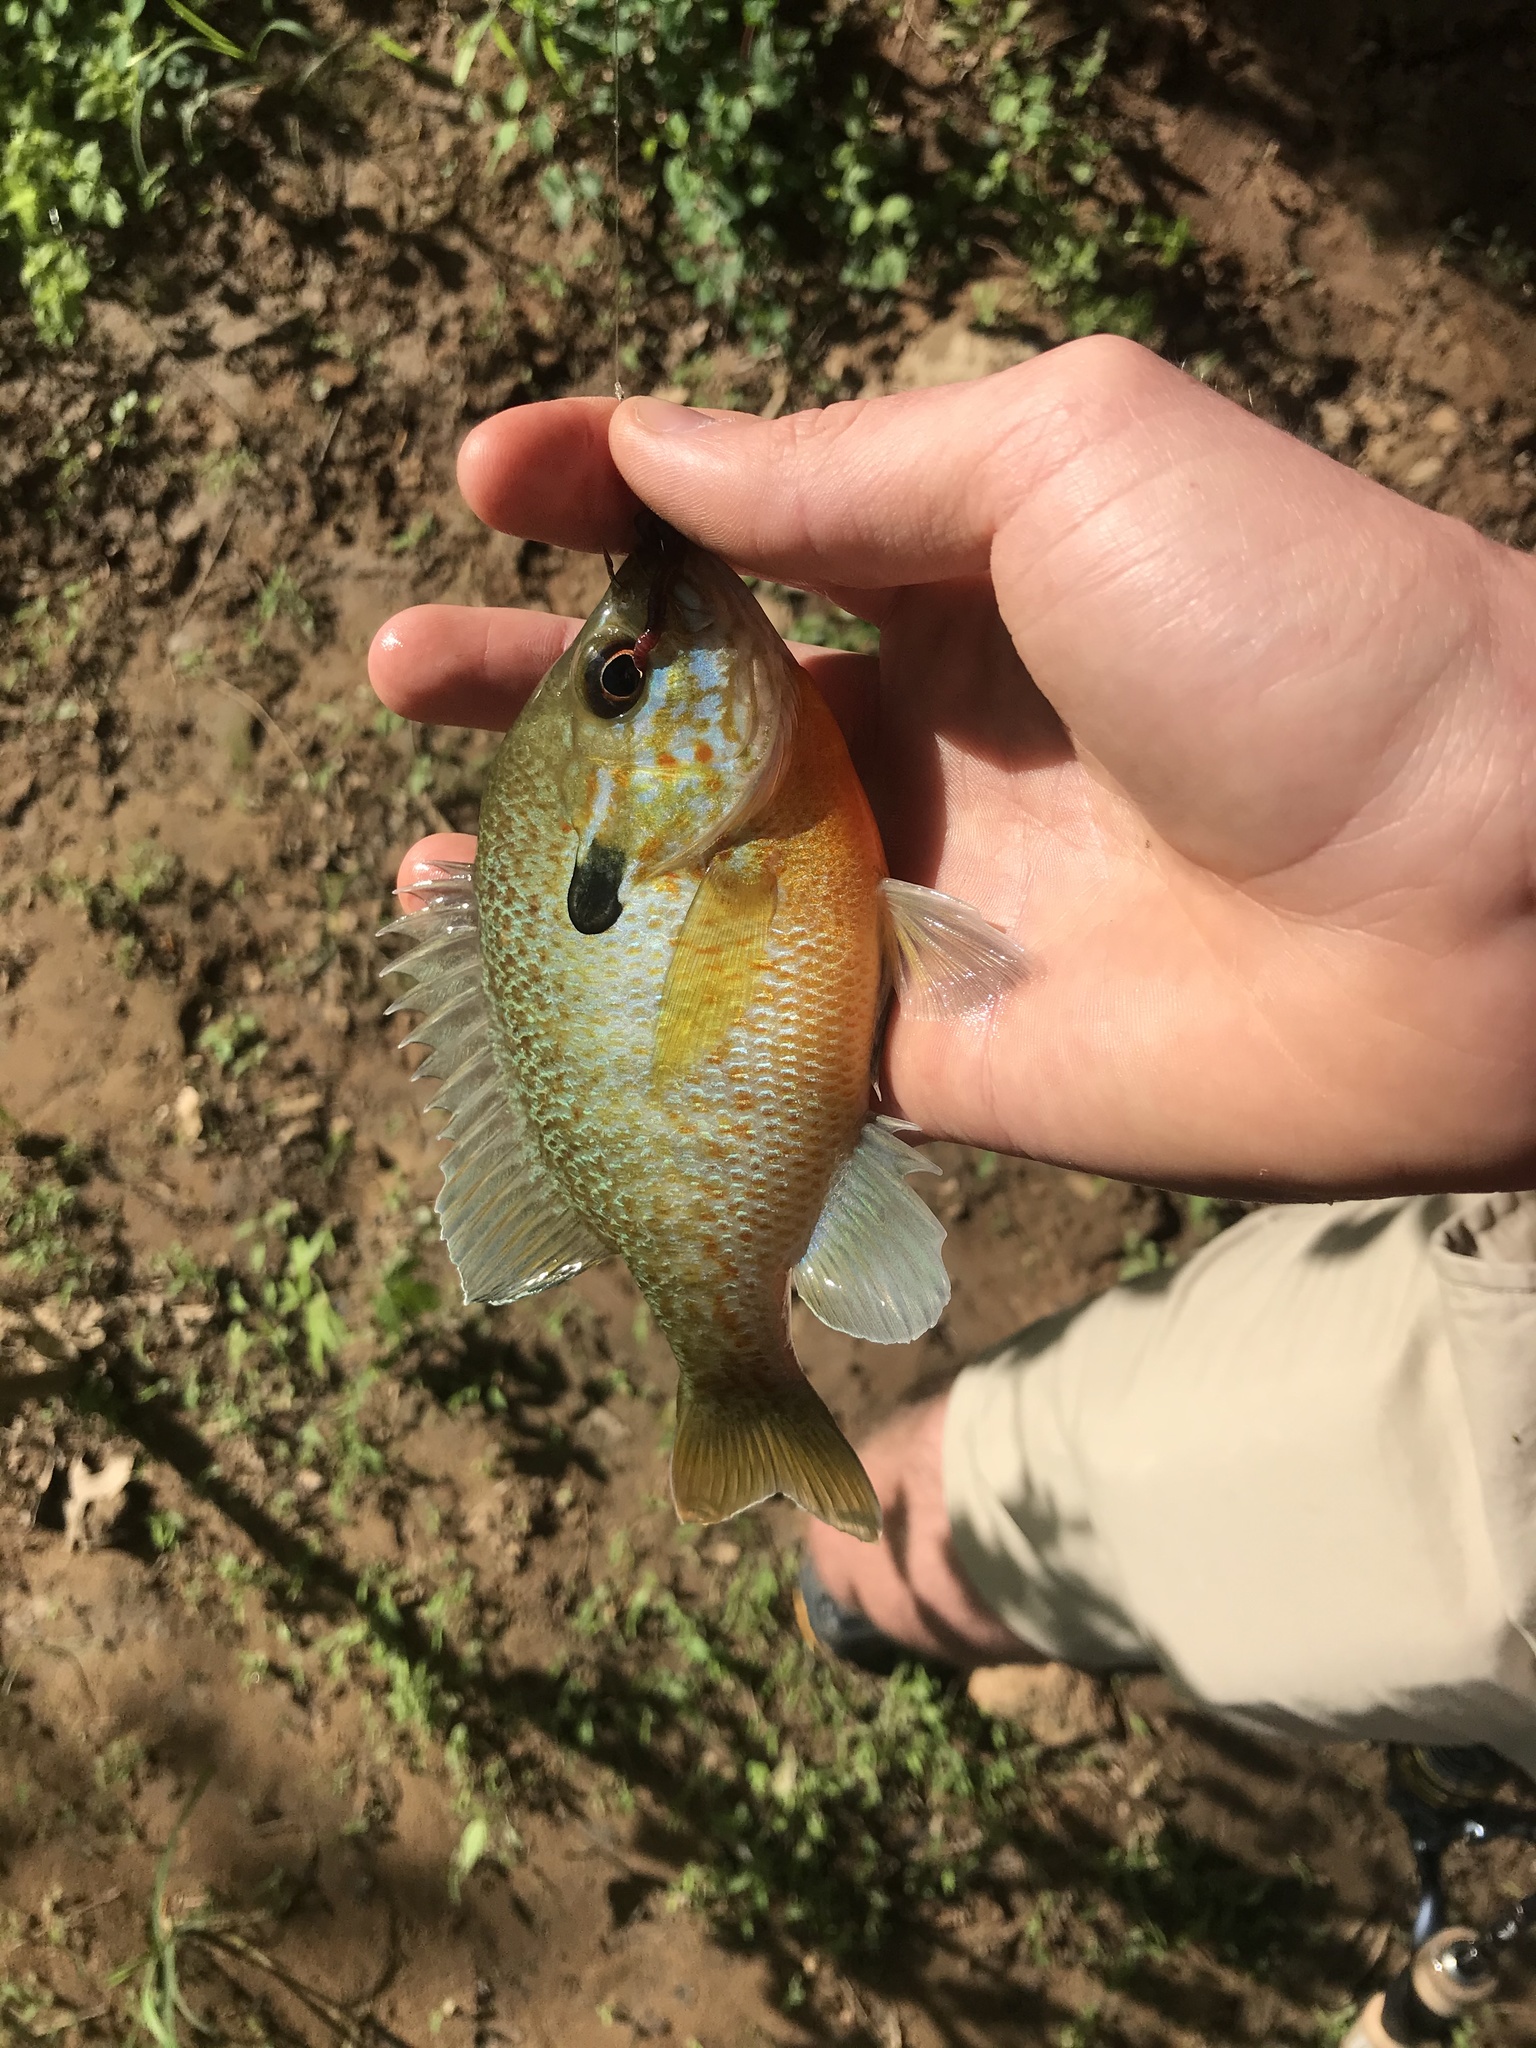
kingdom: Animalia
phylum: Chordata
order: Perciformes
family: Centrarchidae
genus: Lepomis
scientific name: Lepomis
